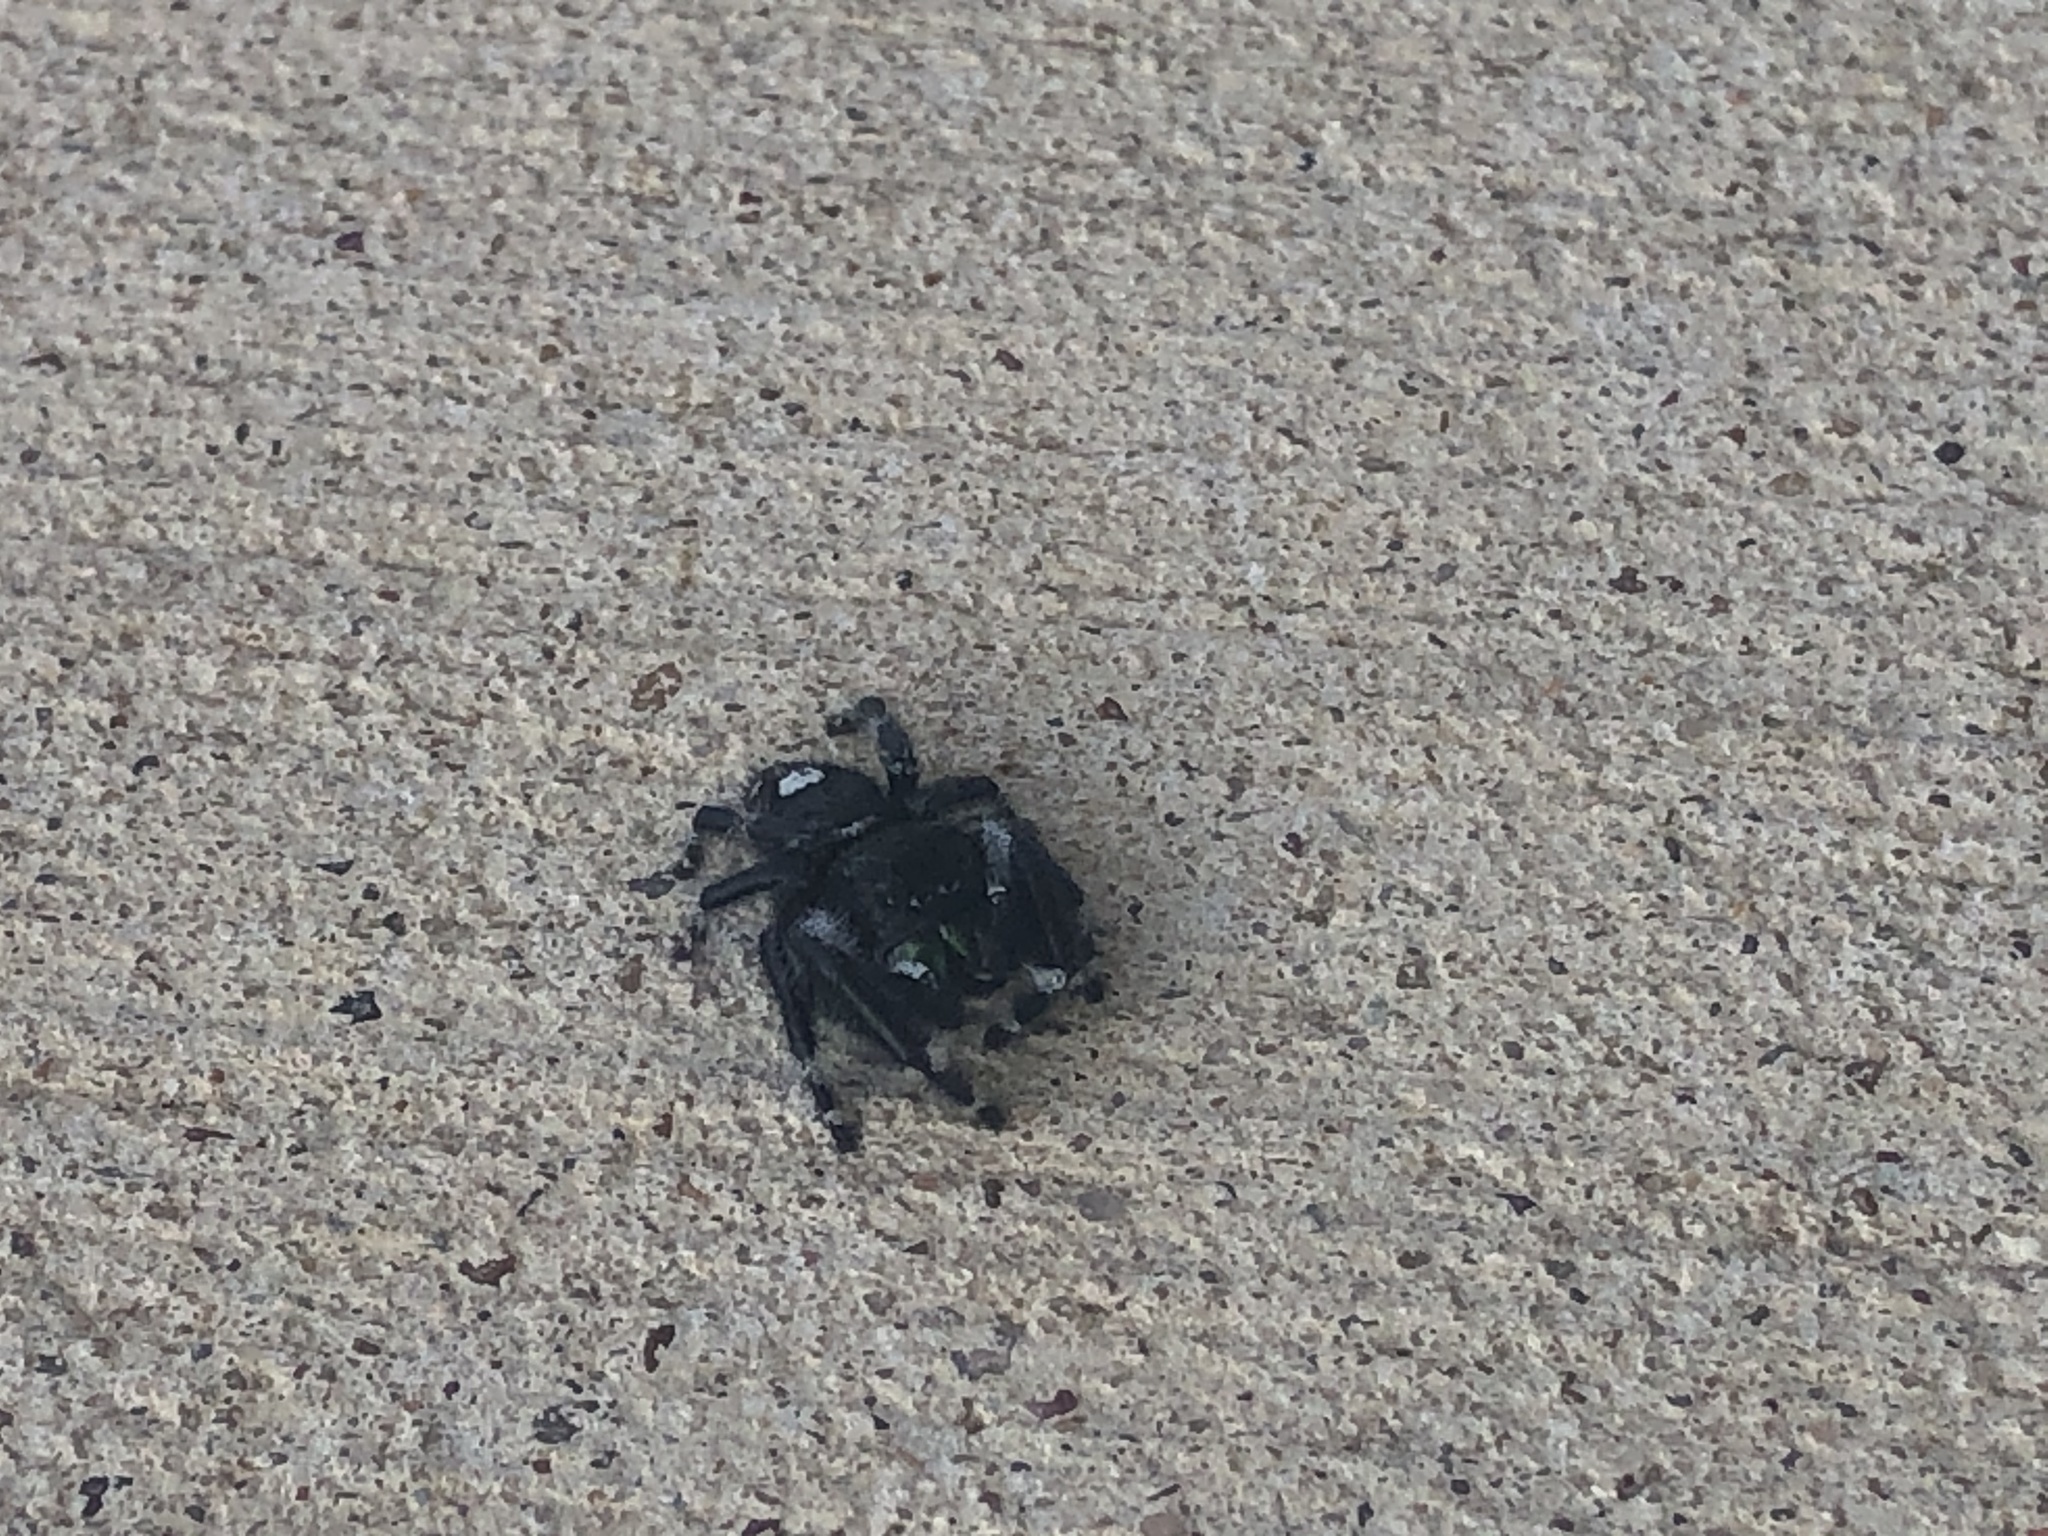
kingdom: Animalia
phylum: Arthropoda
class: Arachnida
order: Araneae
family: Salticidae
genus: Phidippus
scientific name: Phidippus audax
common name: Bold jumper
